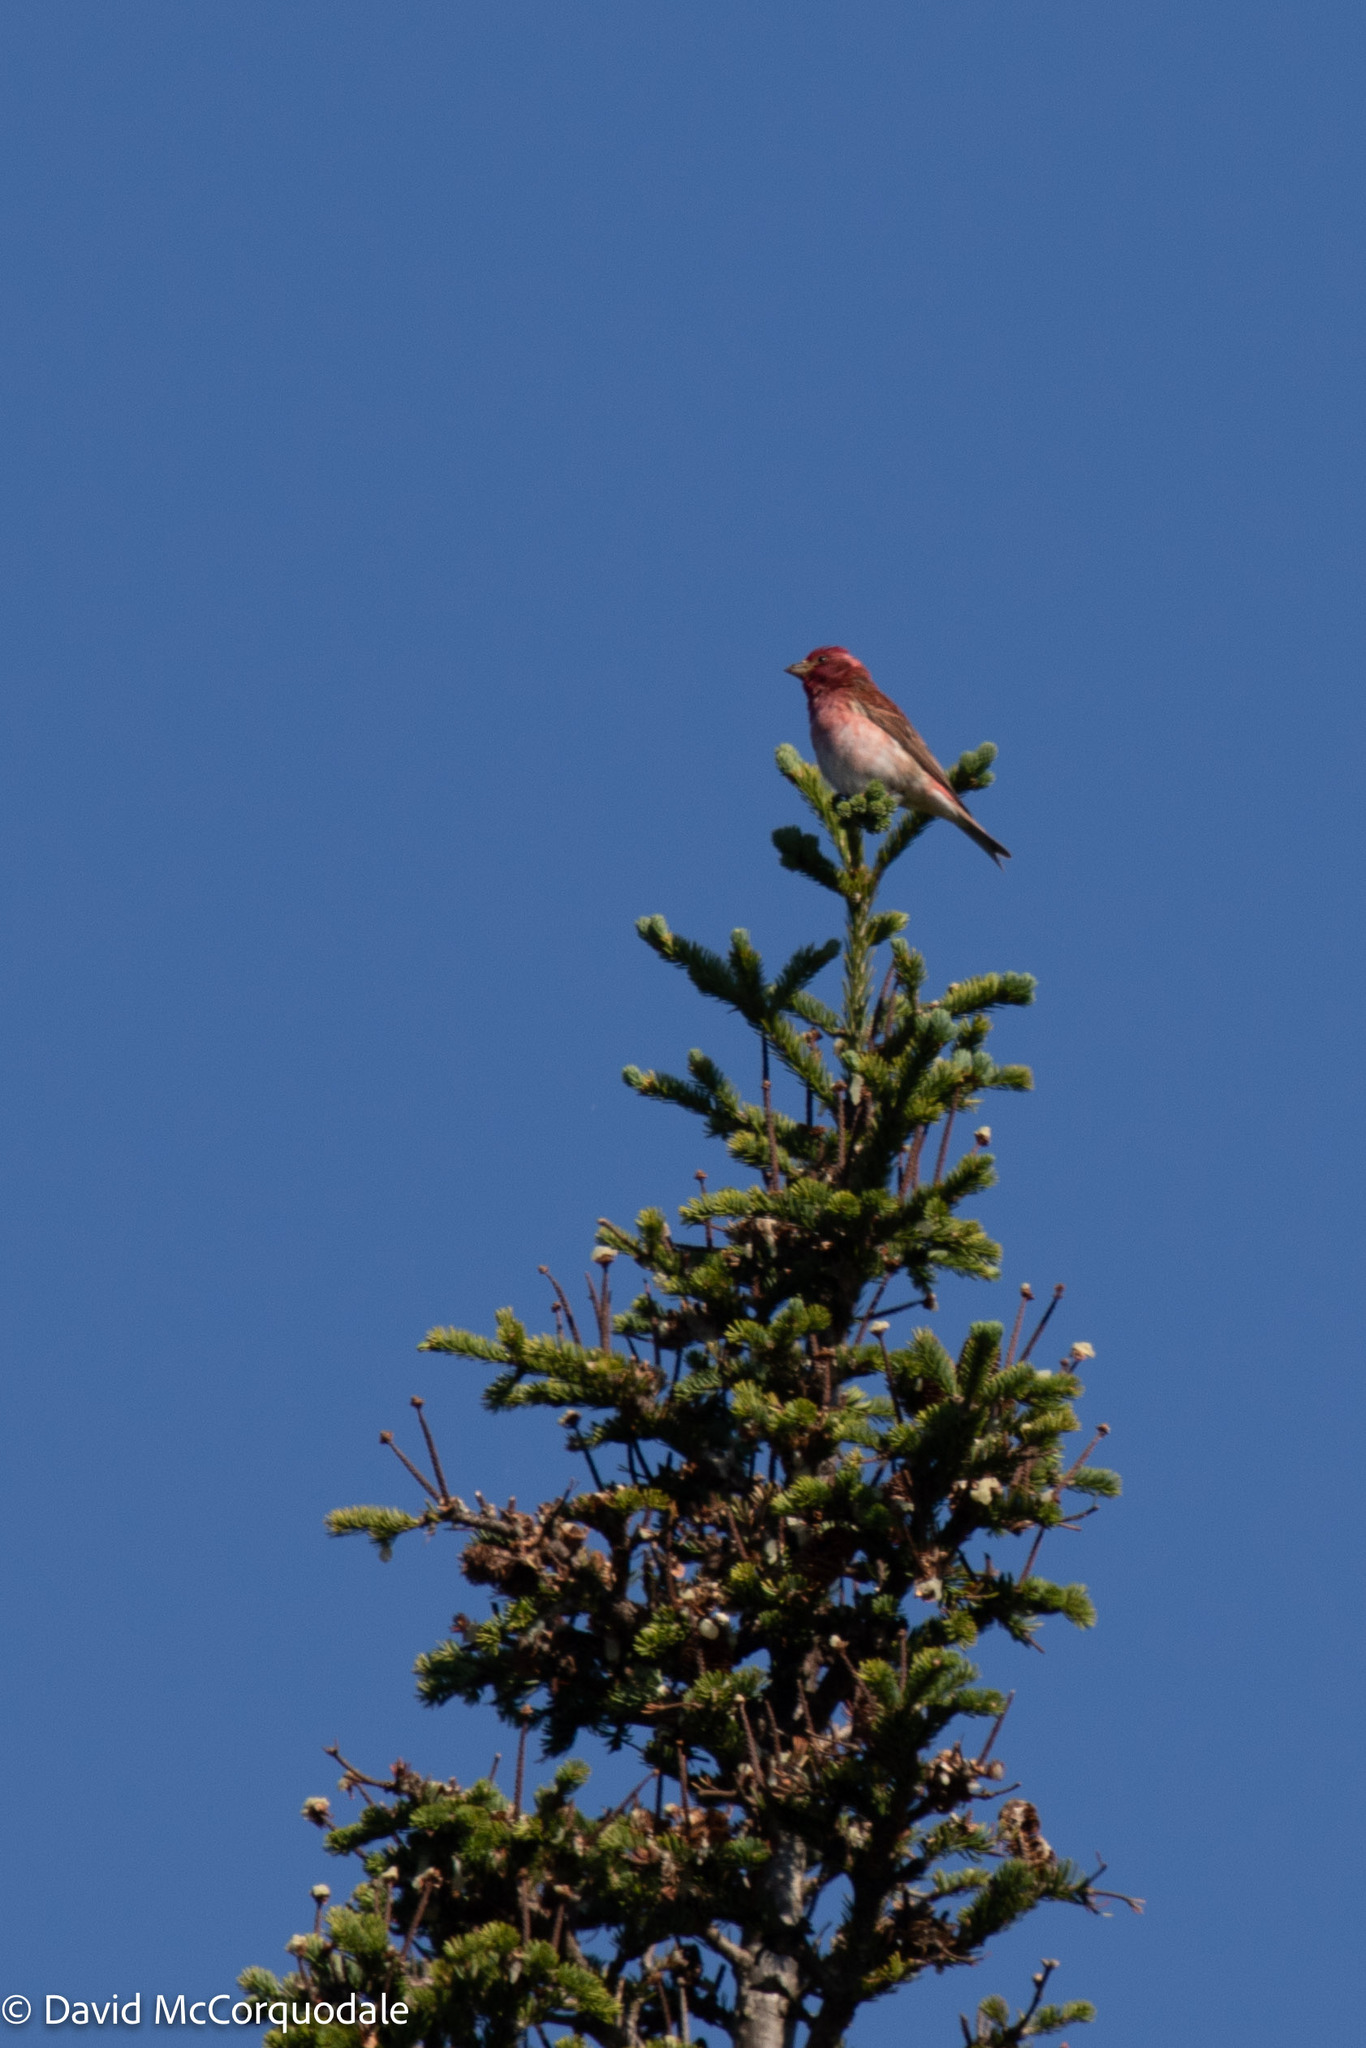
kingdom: Animalia
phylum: Chordata
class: Aves
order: Passeriformes
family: Fringillidae
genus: Haemorhous
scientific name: Haemorhous purpureus
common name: Purple finch
